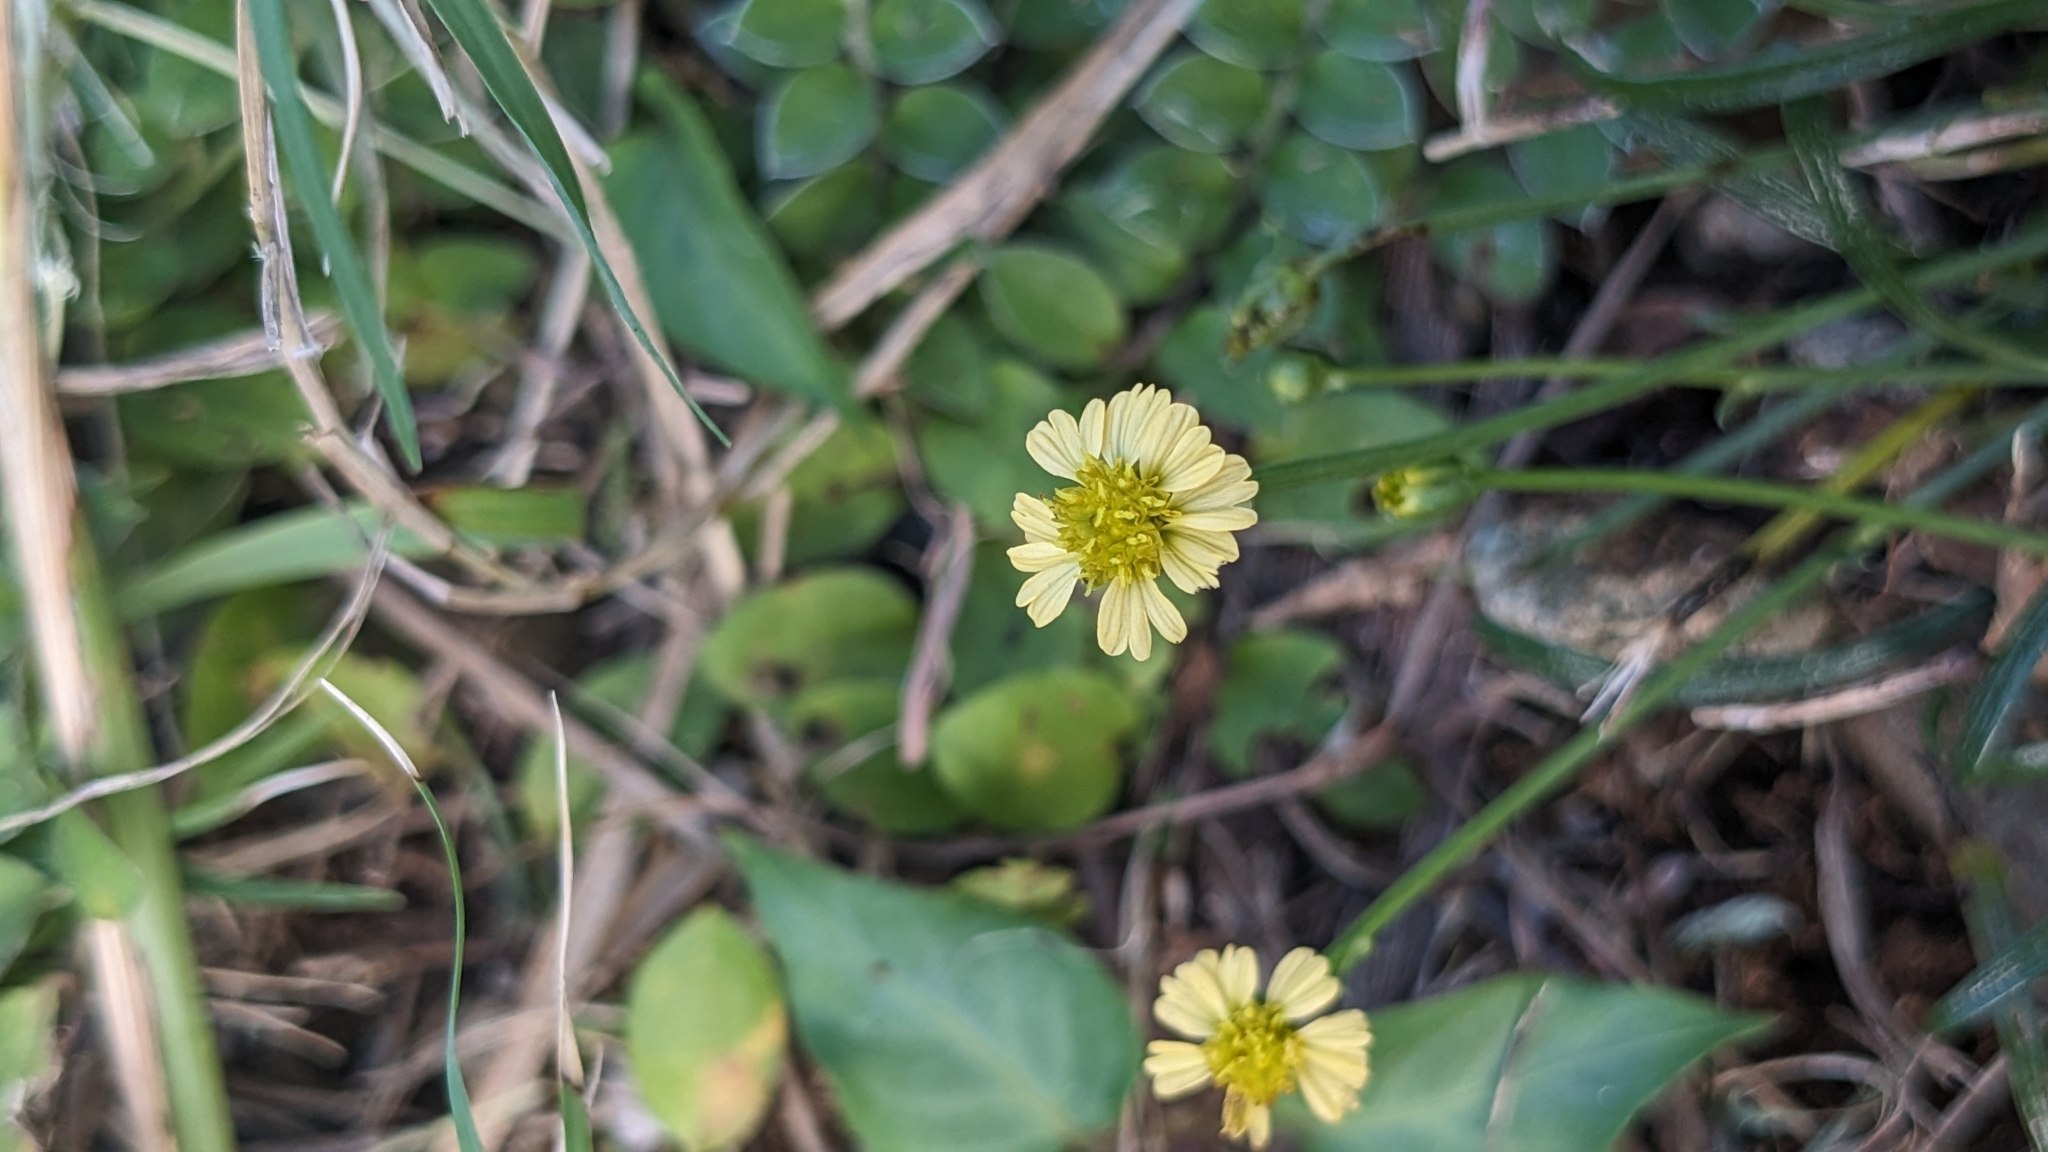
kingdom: Plantae
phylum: Tracheophyta
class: Magnoliopsida
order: Asterales
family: Asteraceae
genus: Glossocardia
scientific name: Glossocardia bidens
